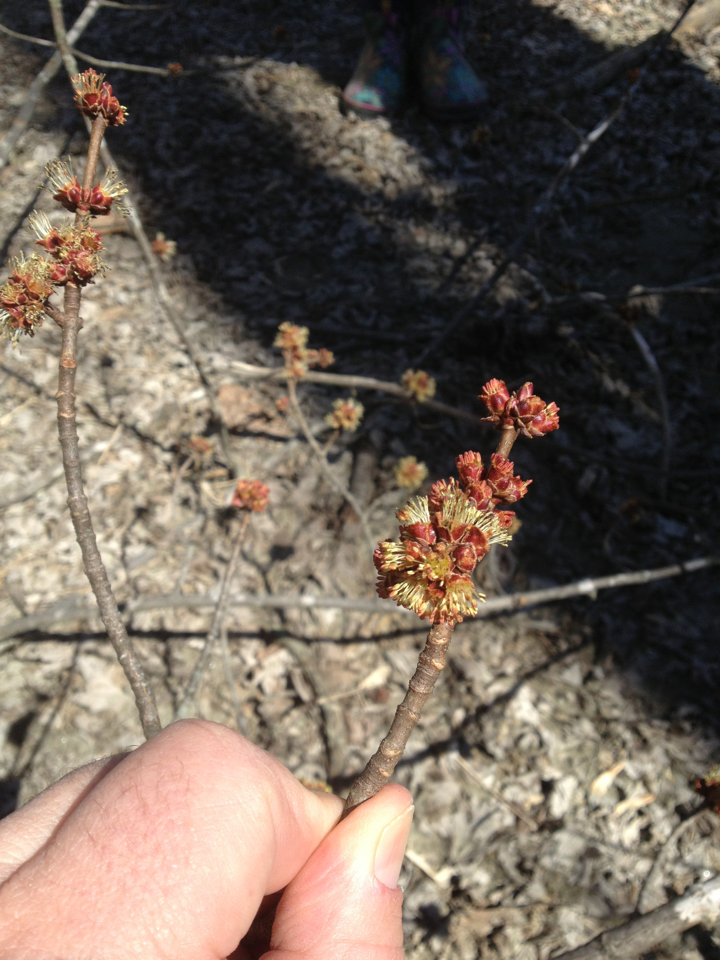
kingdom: Plantae
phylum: Tracheophyta
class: Magnoliopsida
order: Sapindales
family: Sapindaceae
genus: Acer
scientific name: Acer saccharinum
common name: Silver maple
